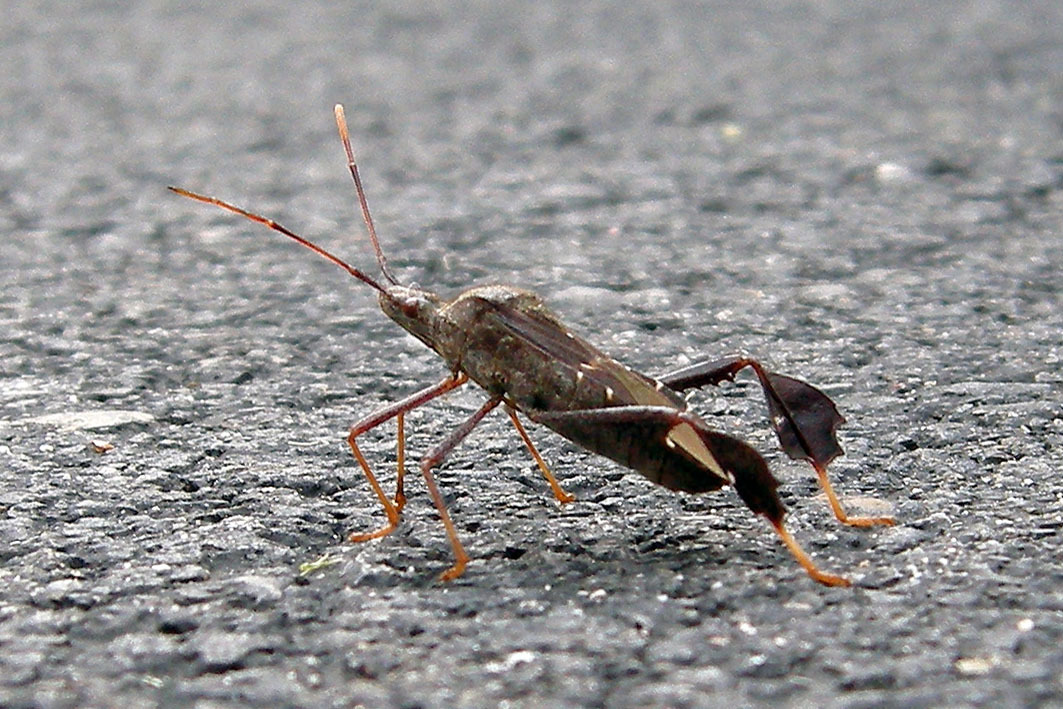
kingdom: Animalia
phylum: Arthropoda
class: Insecta
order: Hemiptera
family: Coreidae
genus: Leptoglossus
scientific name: Leptoglossus oppositus
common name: Northern leaf-footed bug
